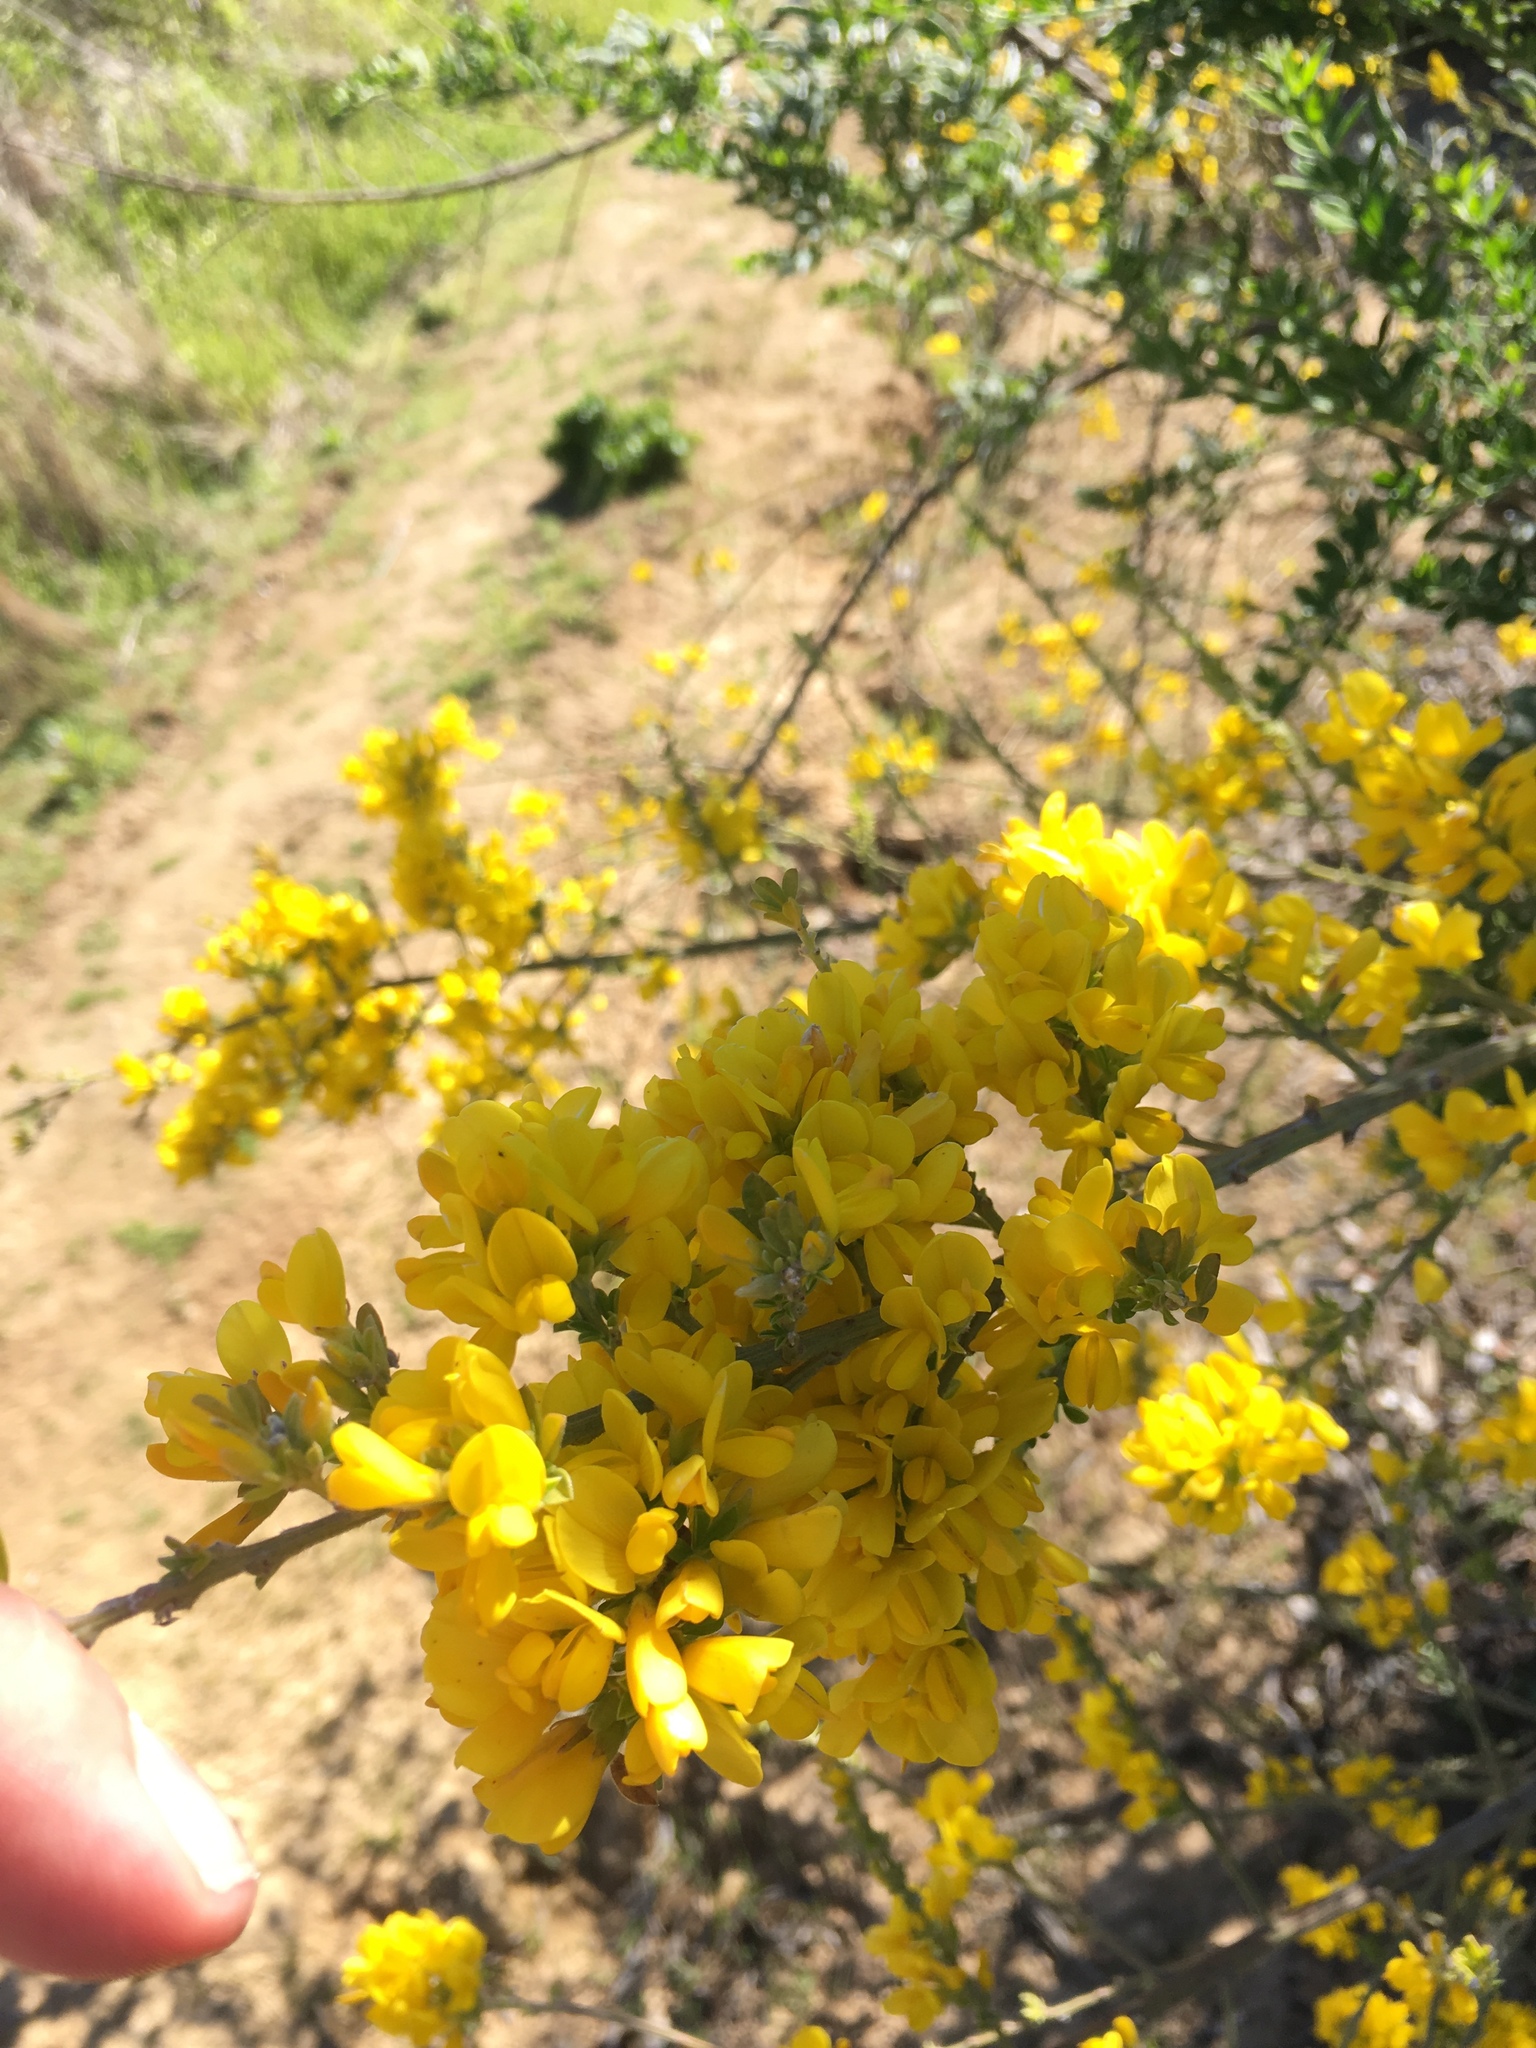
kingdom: Plantae
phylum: Tracheophyta
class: Magnoliopsida
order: Fabales
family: Fabaceae
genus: Genista
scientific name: Genista monspessulana
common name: Montpellier broom
